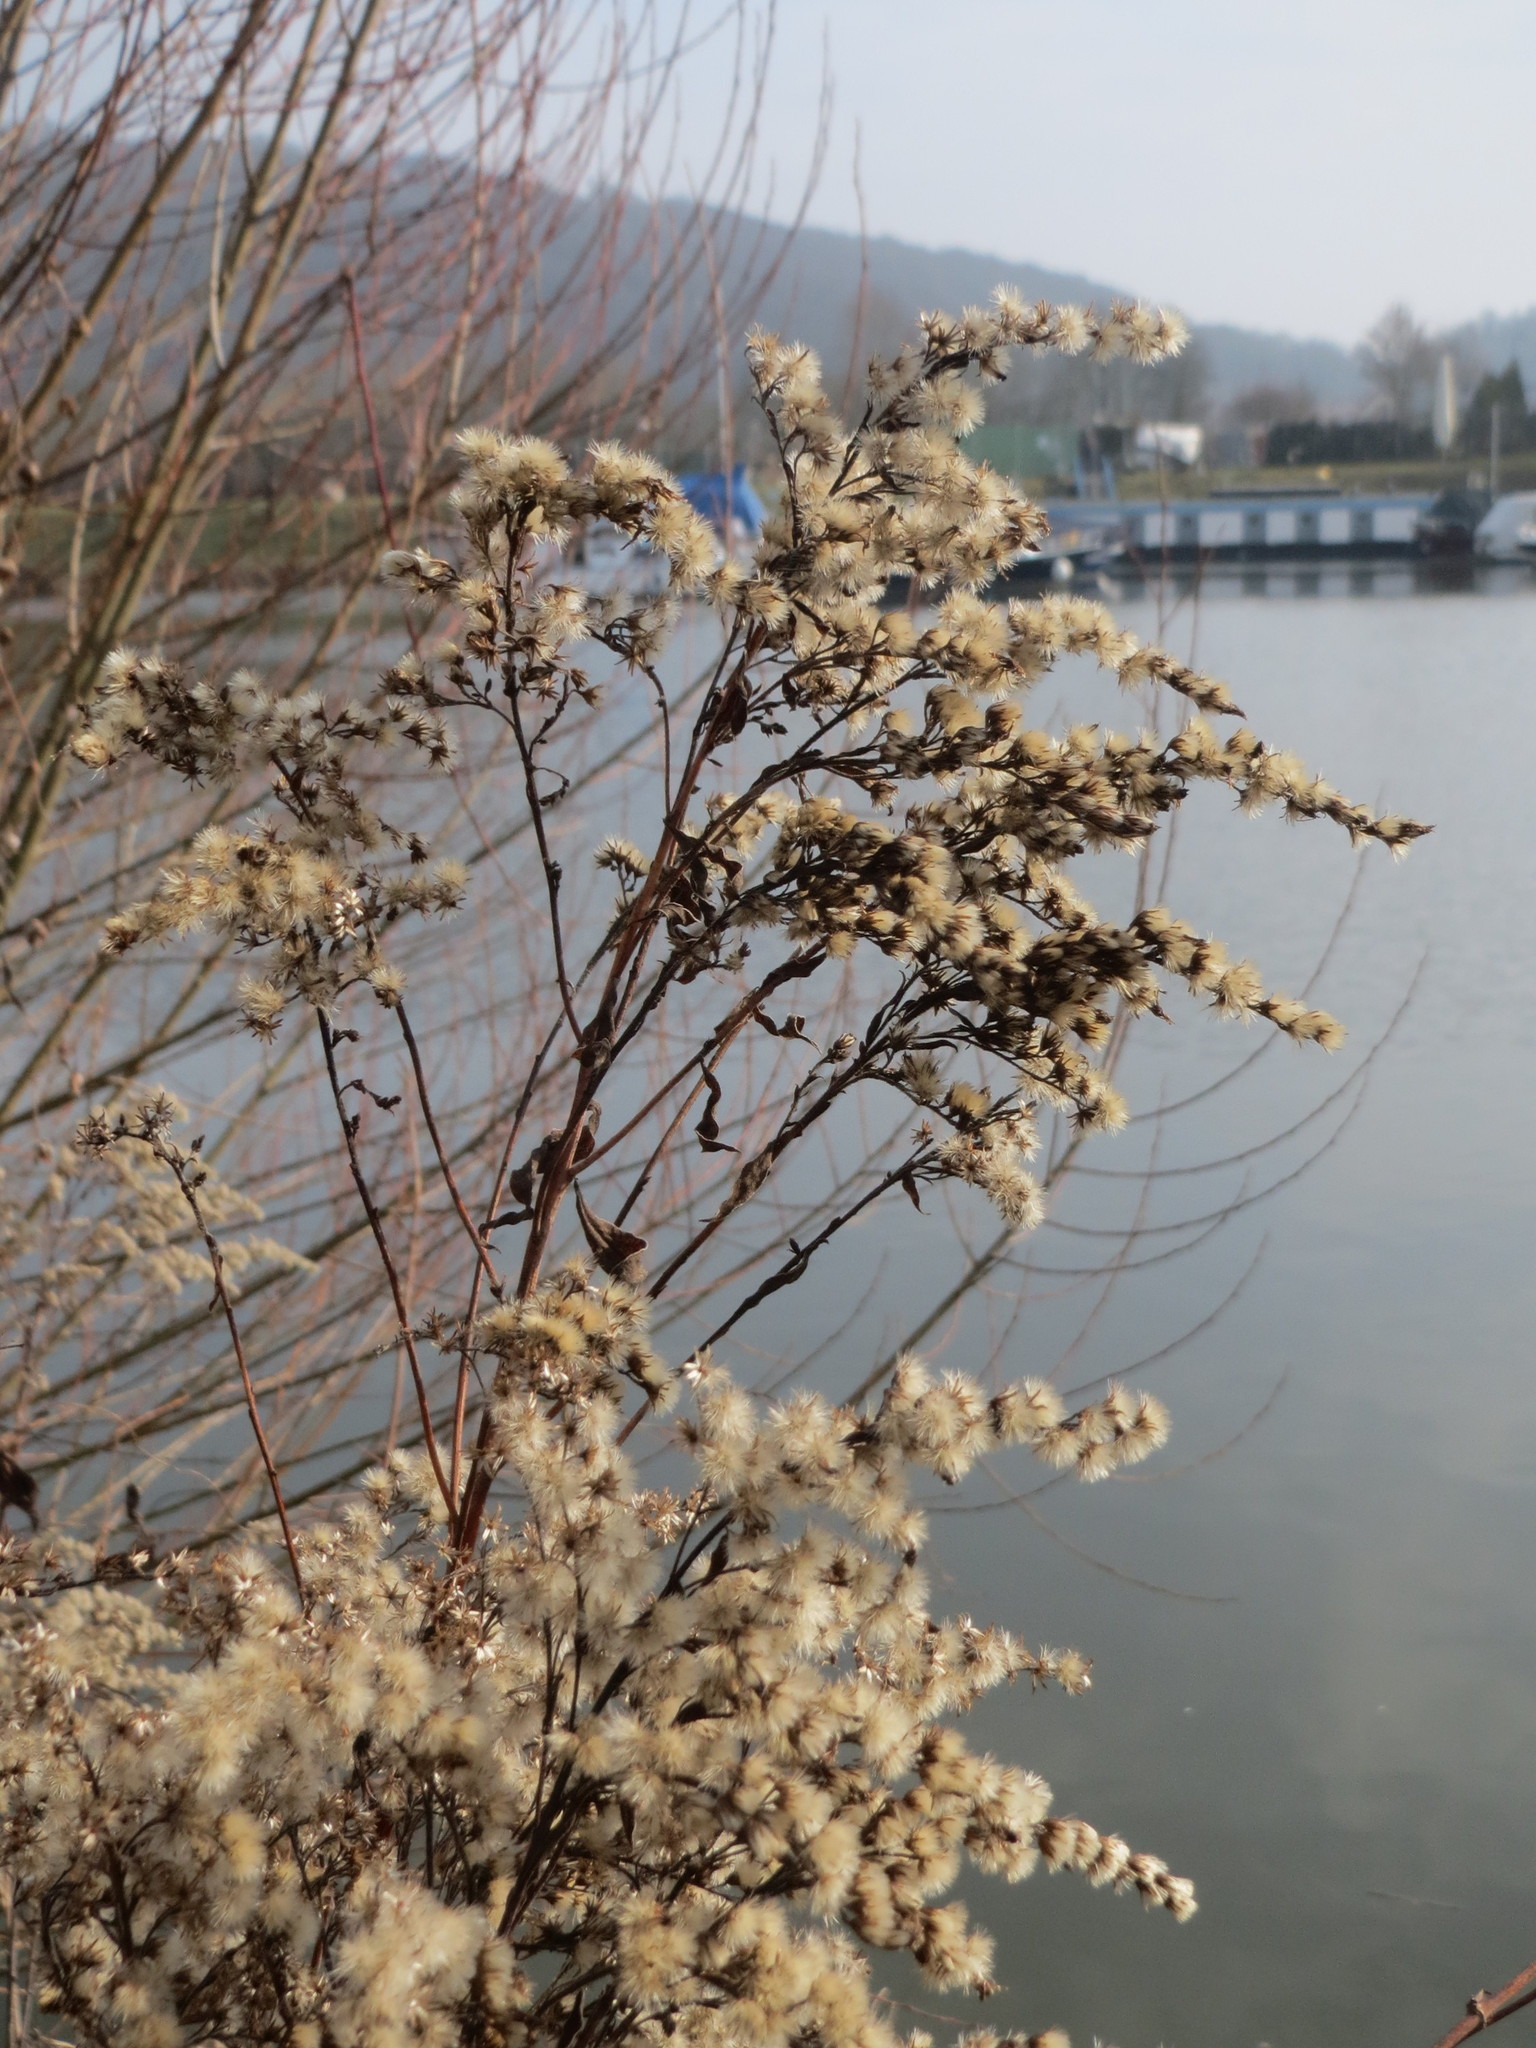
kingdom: Plantae
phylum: Tracheophyta
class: Magnoliopsida
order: Asterales
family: Asteraceae
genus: Solidago
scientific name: Solidago
